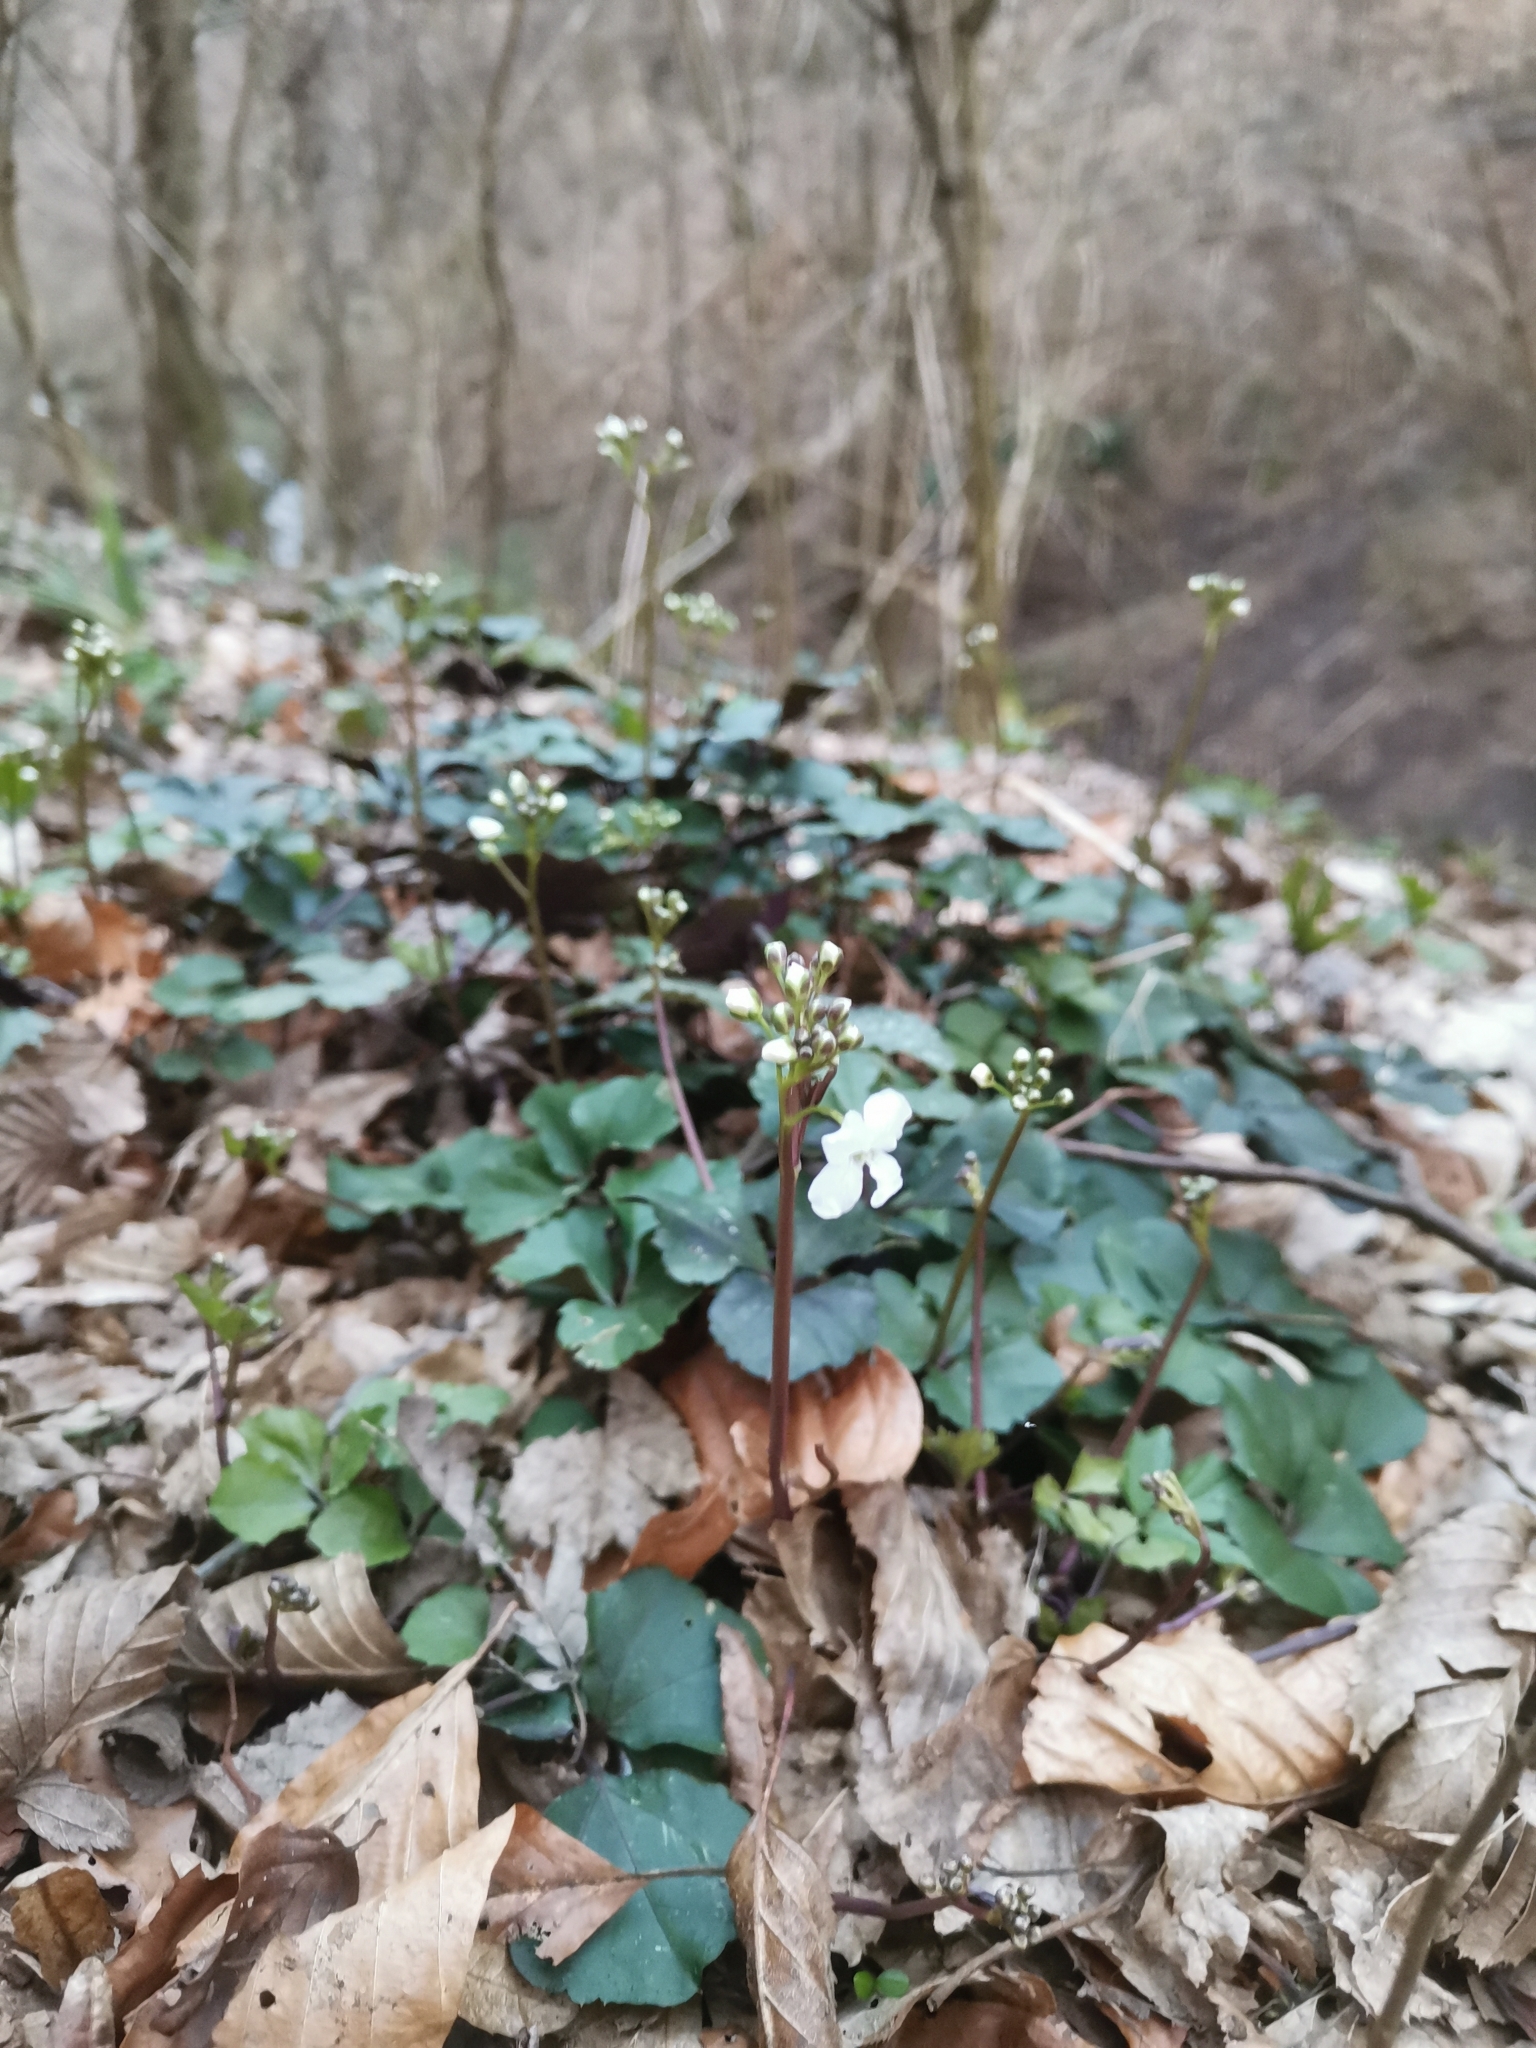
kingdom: Plantae
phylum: Tracheophyta
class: Magnoliopsida
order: Brassicales
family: Brassicaceae
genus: Cardamine
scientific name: Cardamine trifolia
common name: Trefoil cress
